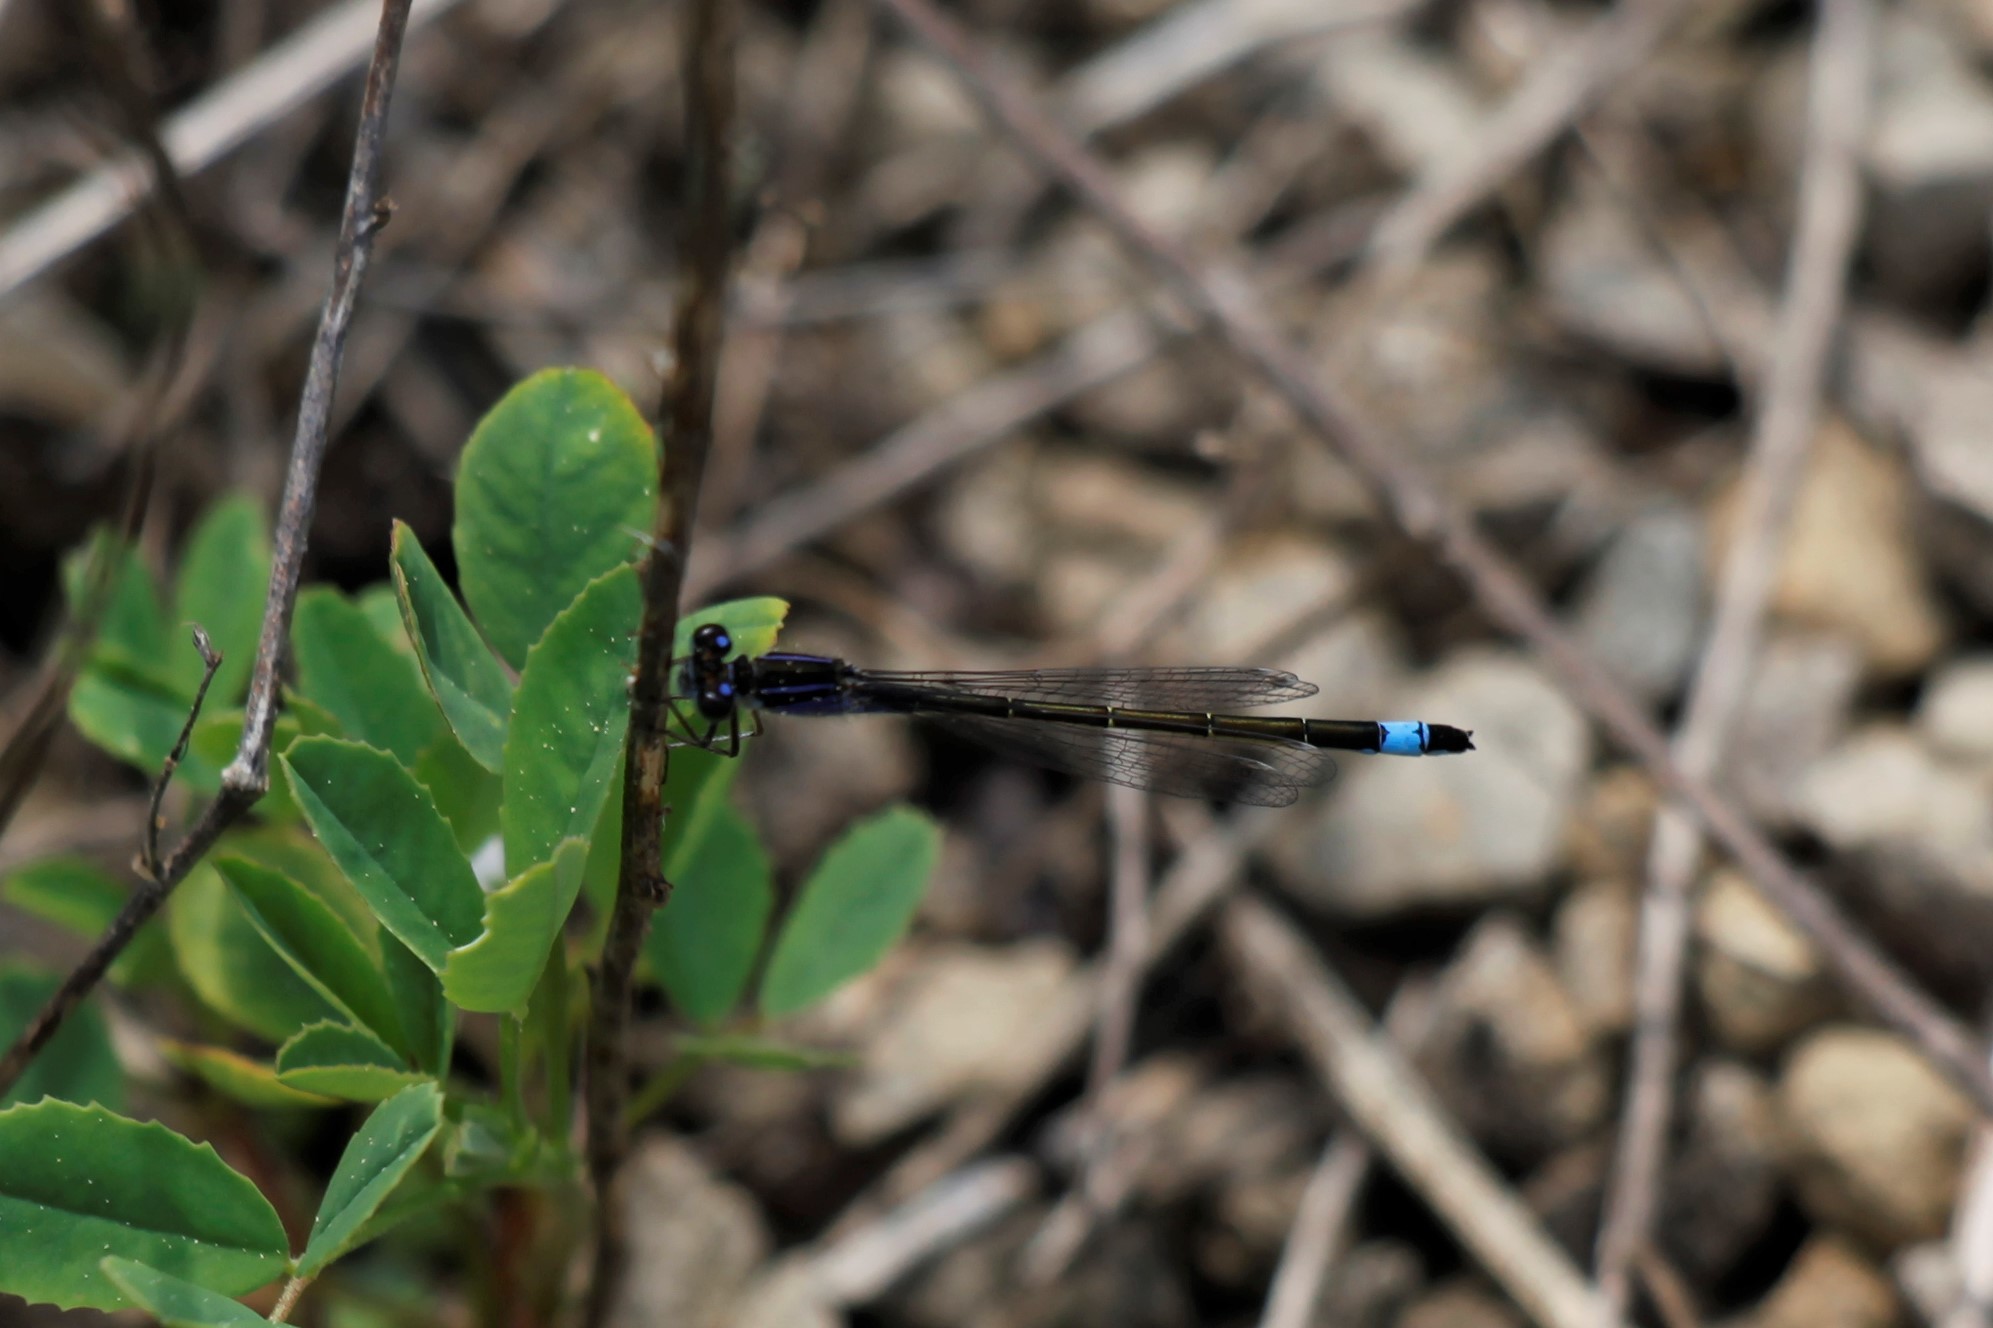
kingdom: Animalia
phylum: Arthropoda
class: Insecta
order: Odonata
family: Coenagrionidae
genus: Ischnura
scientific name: Ischnura elegans
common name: Blue-tailed damselfly
